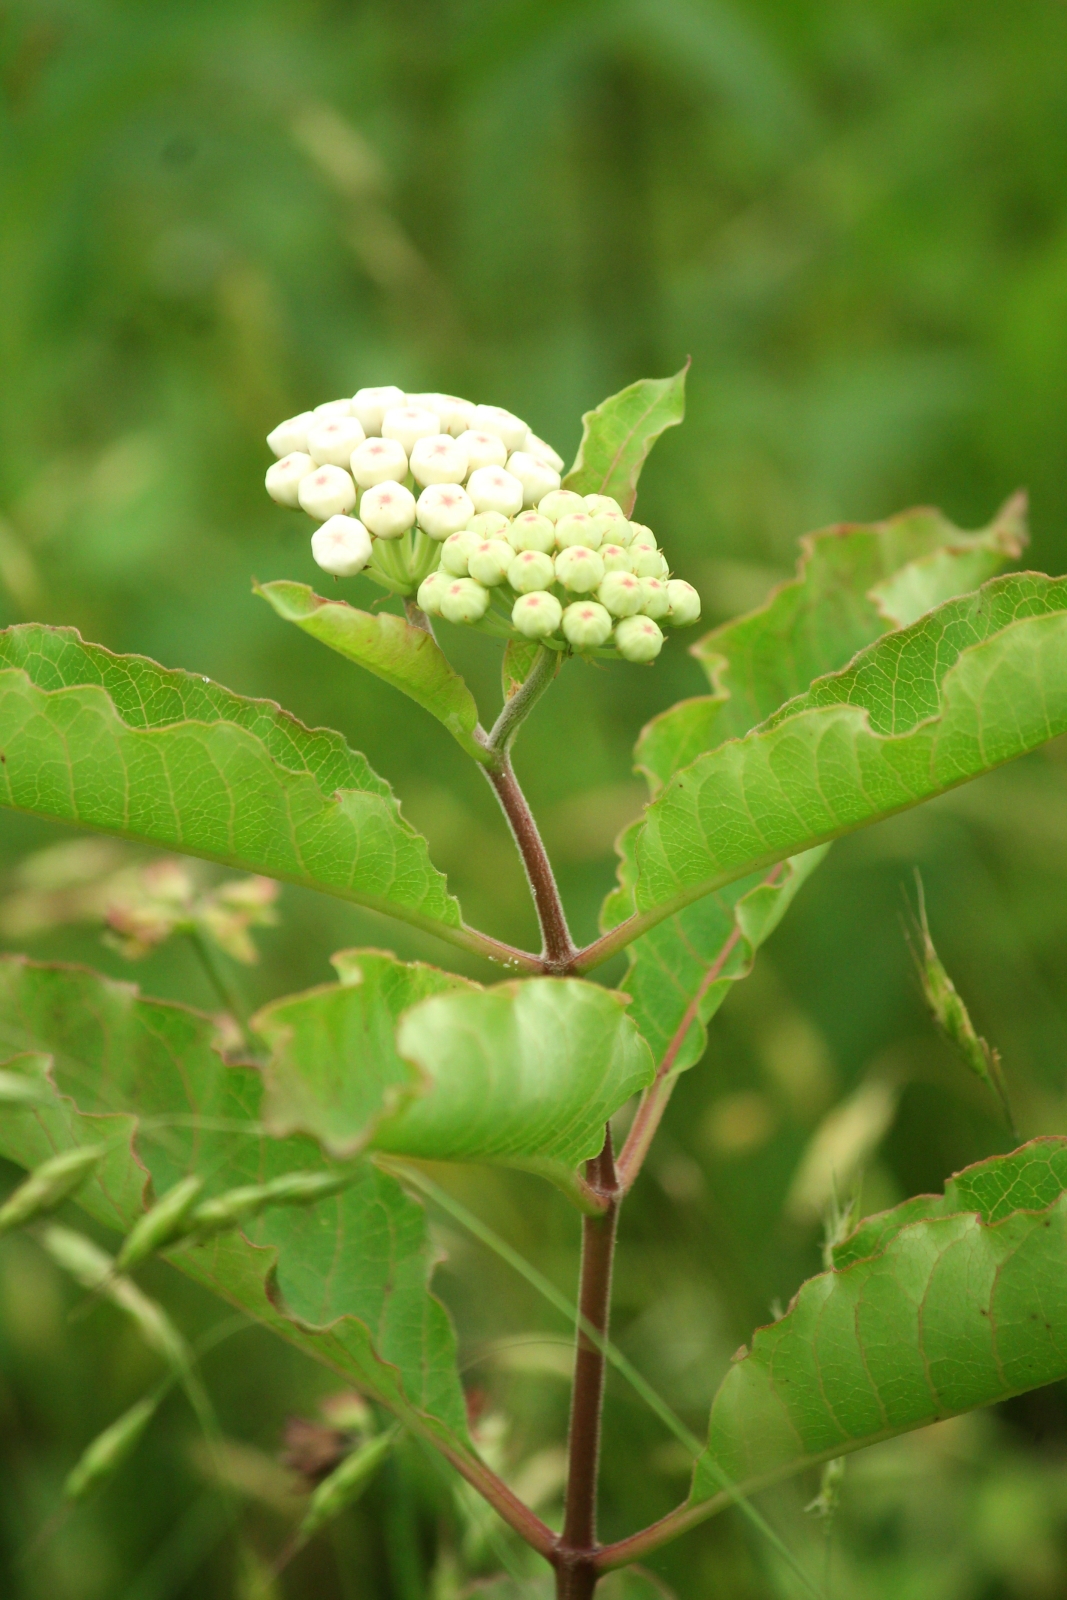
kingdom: Plantae
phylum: Tracheophyta
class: Magnoliopsida
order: Gentianales
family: Apocynaceae
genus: Asclepias
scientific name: Asclepias variegata
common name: Variegated milkweed
